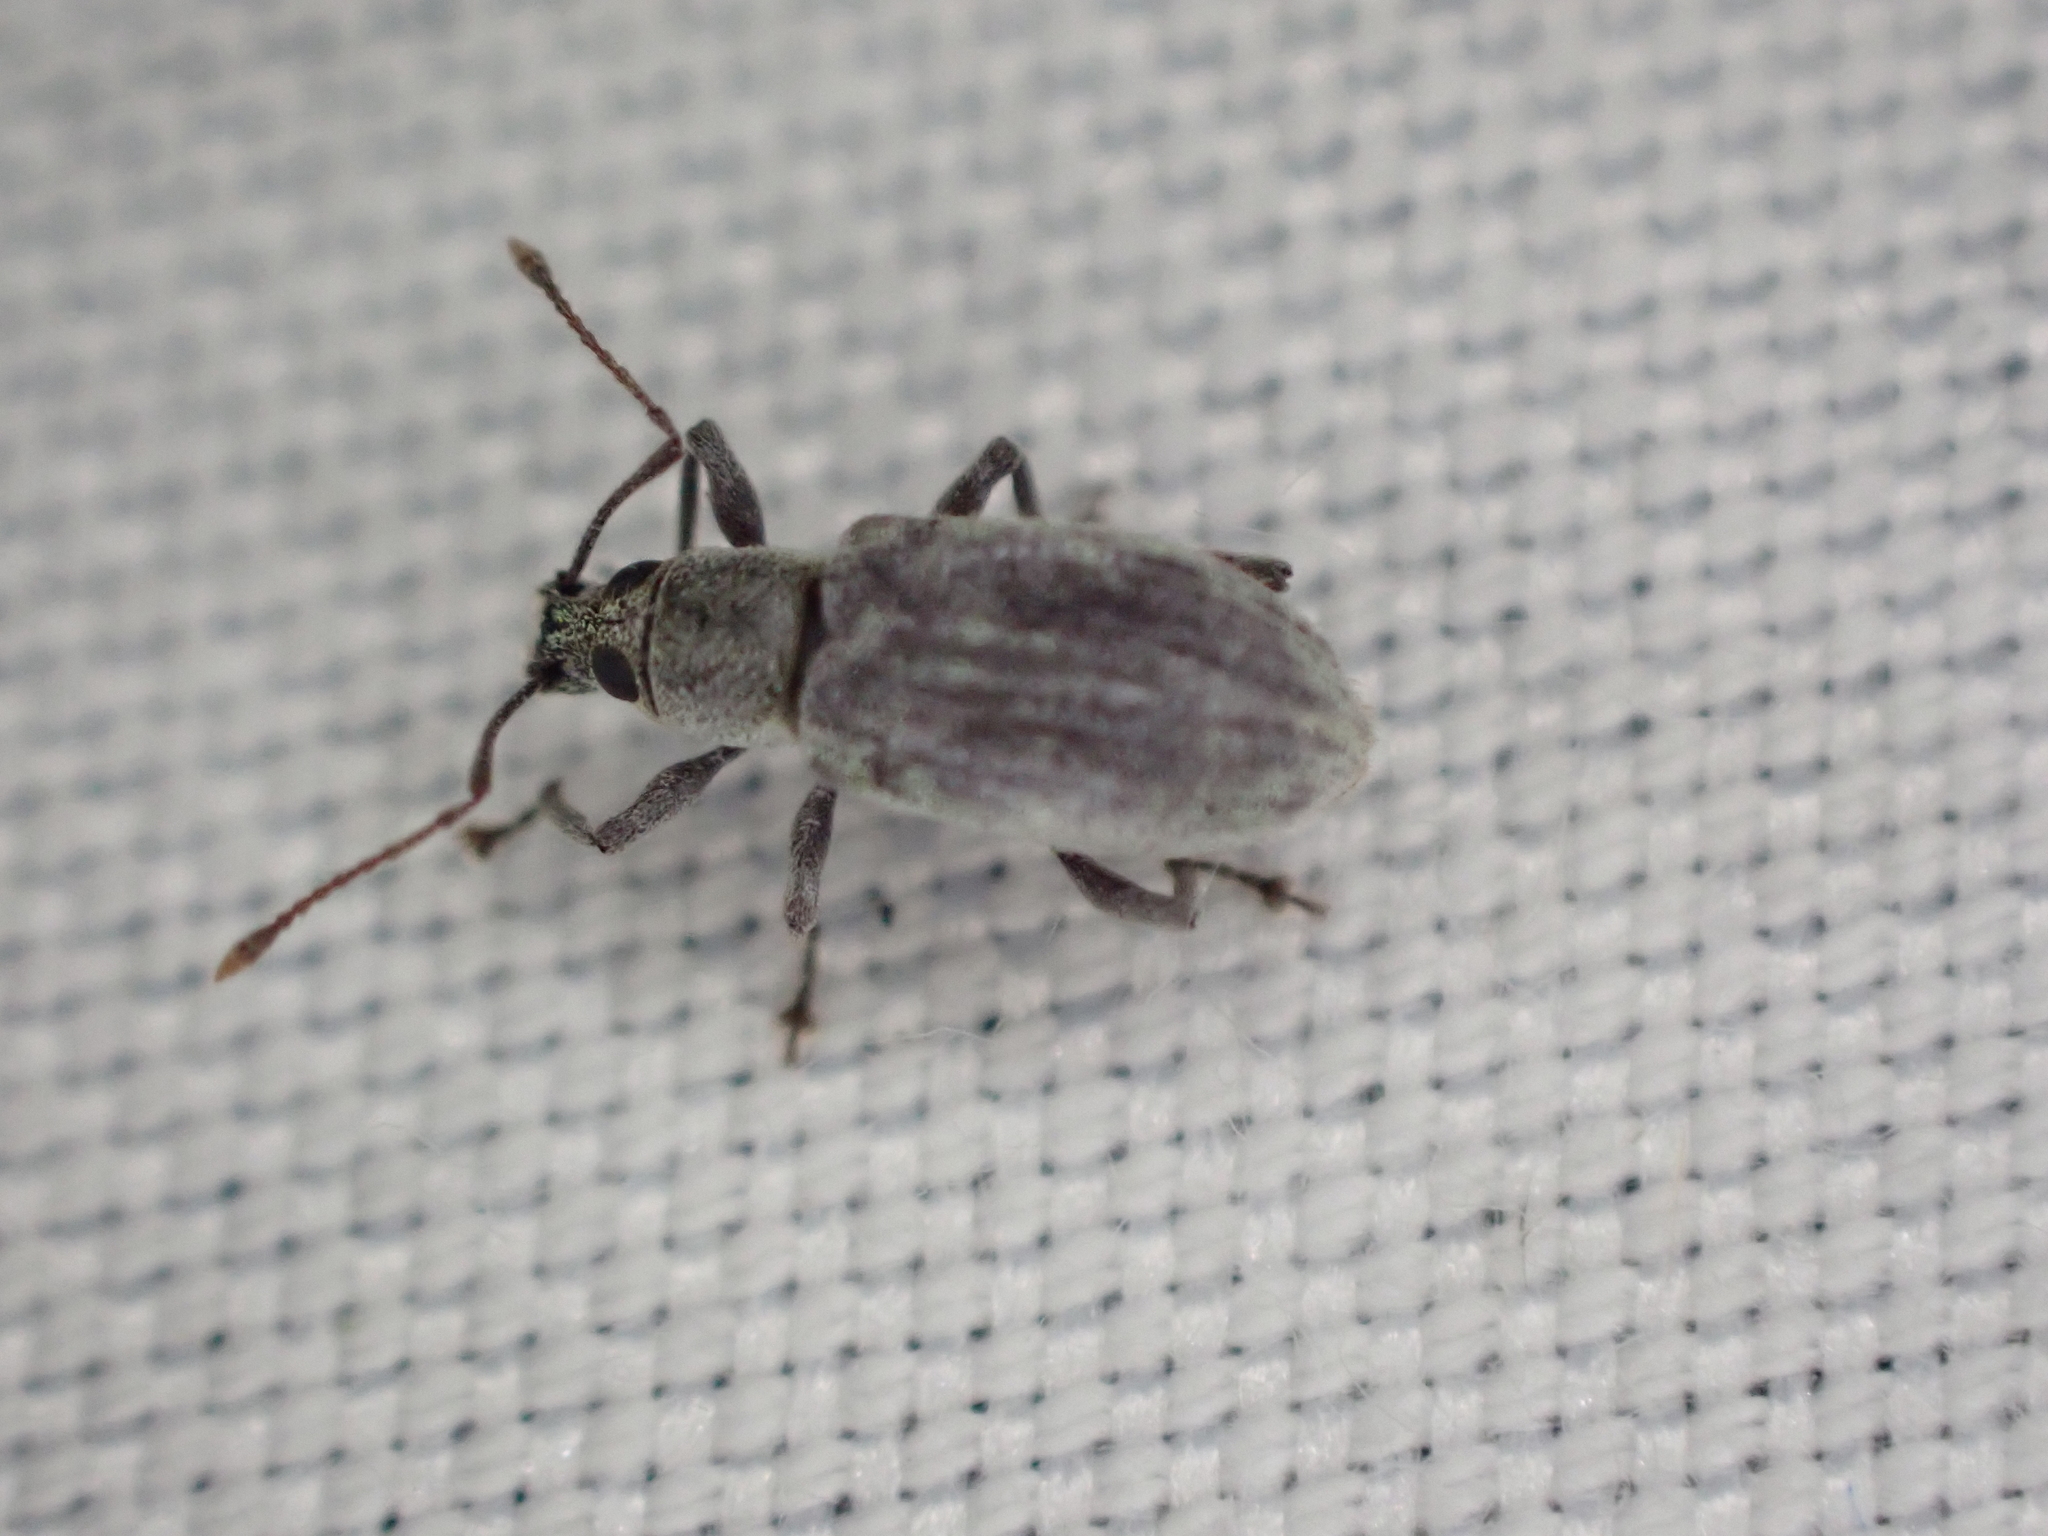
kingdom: Animalia
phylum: Arthropoda
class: Insecta
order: Coleoptera
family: Curculionidae
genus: Cyrtepistomus
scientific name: Cyrtepistomus castaneus
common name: Weevil
